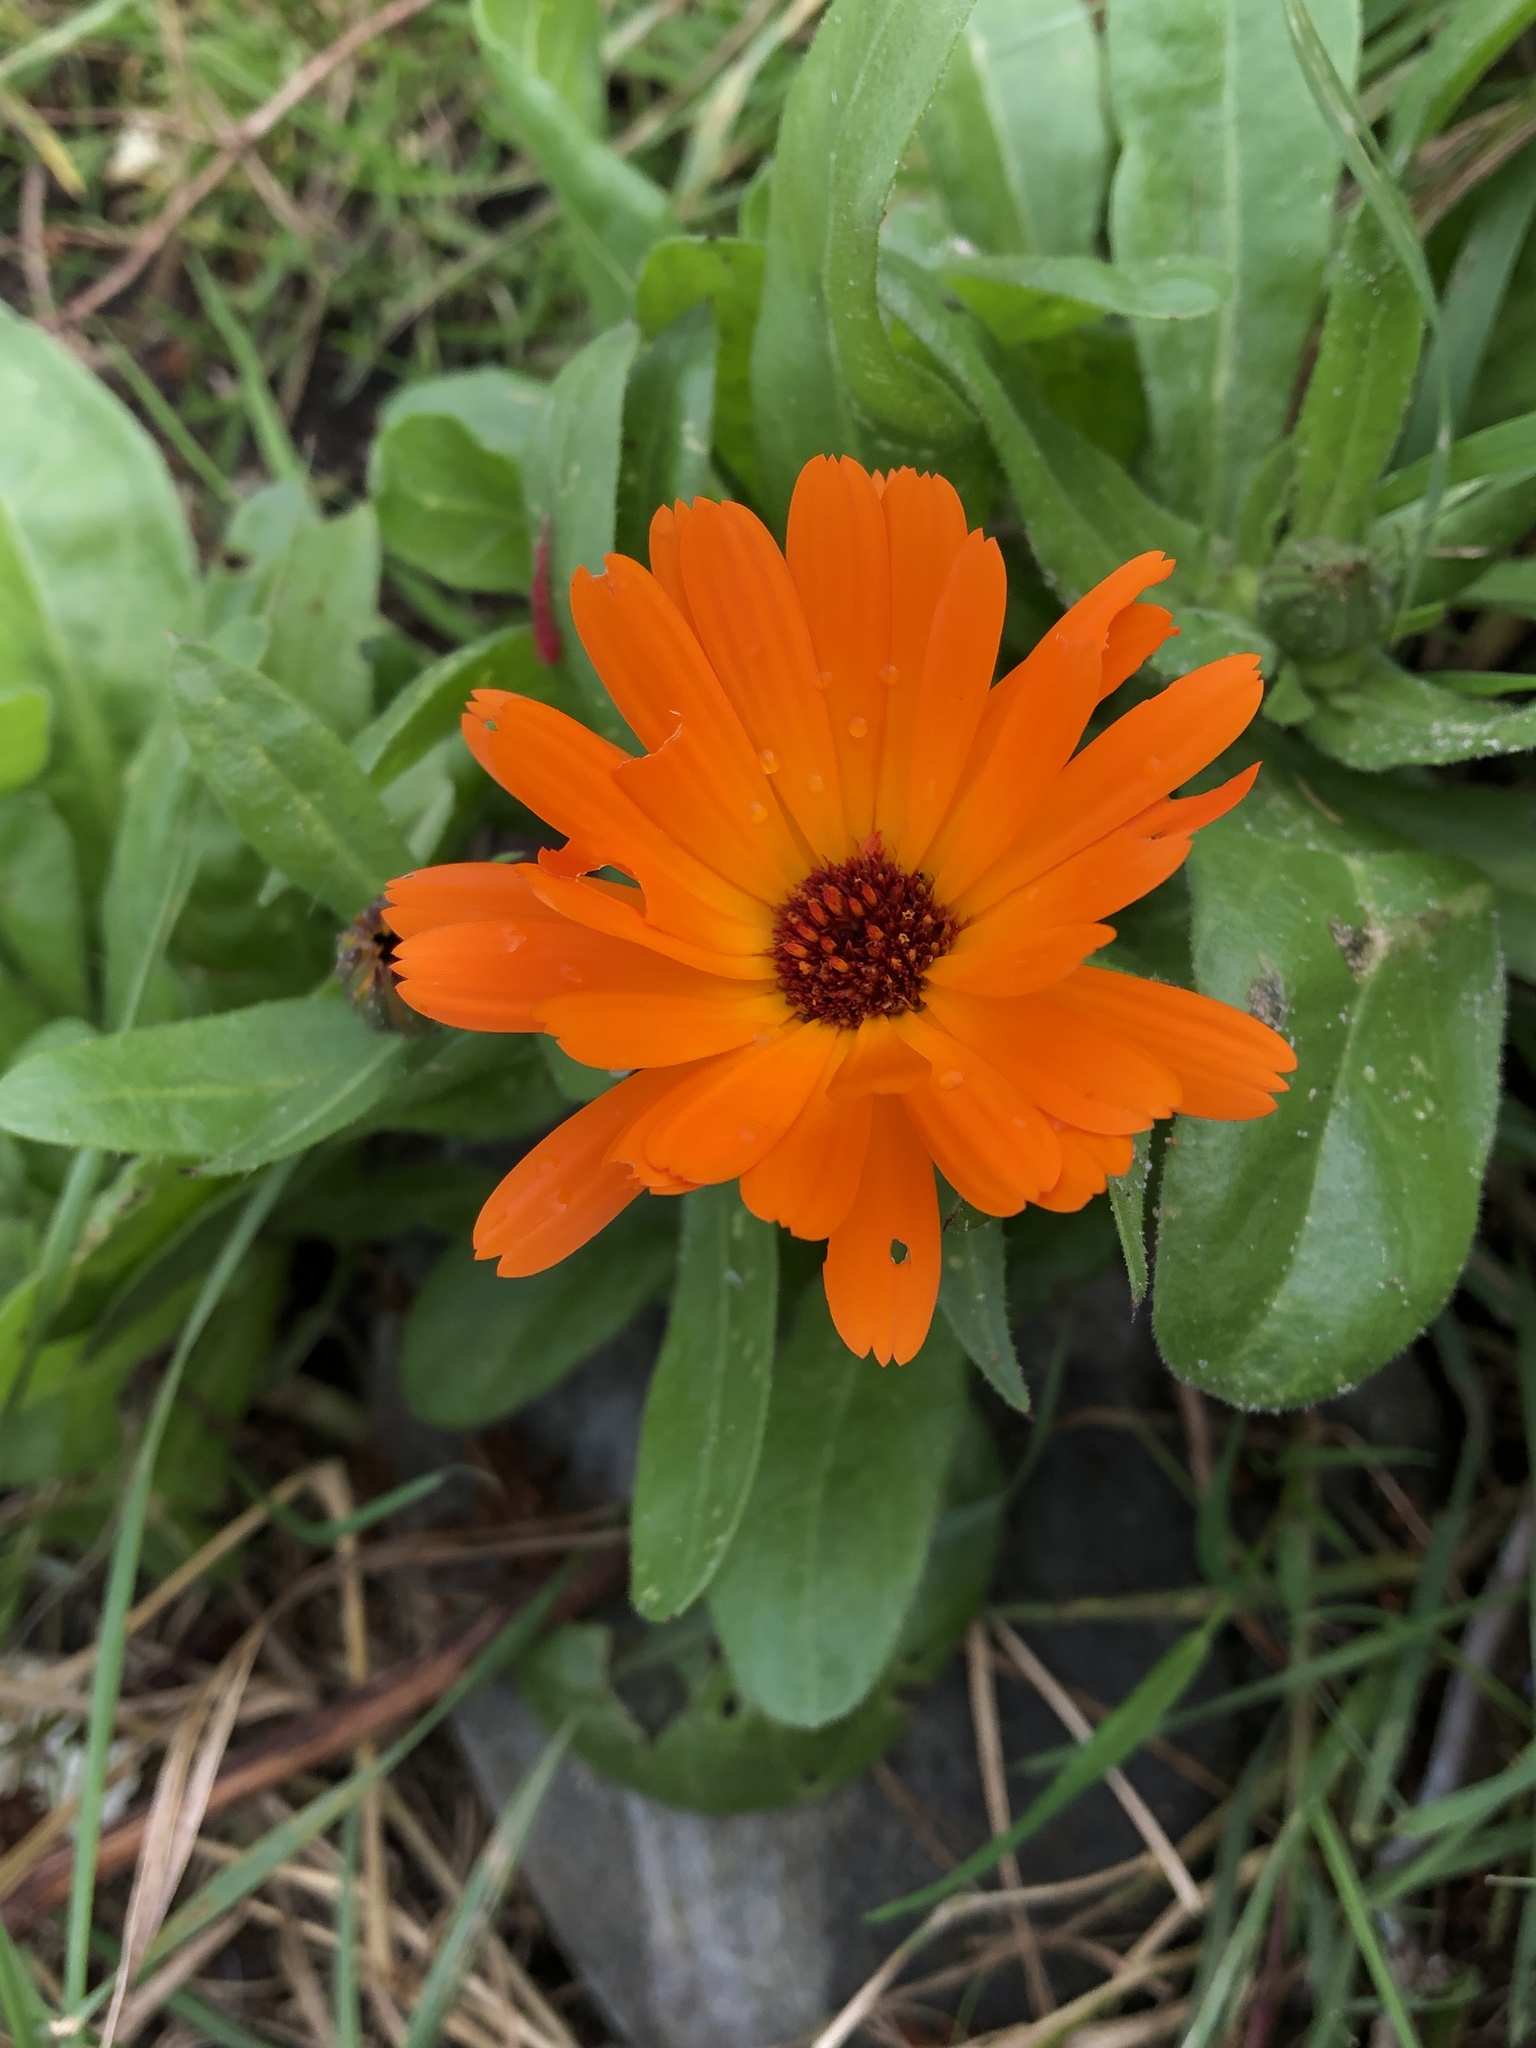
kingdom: Plantae
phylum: Tracheophyta
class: Magnoliopsida
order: Asterales
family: Asteraceae
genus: Calendula
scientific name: Calendula officinalis
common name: Pot marigold
